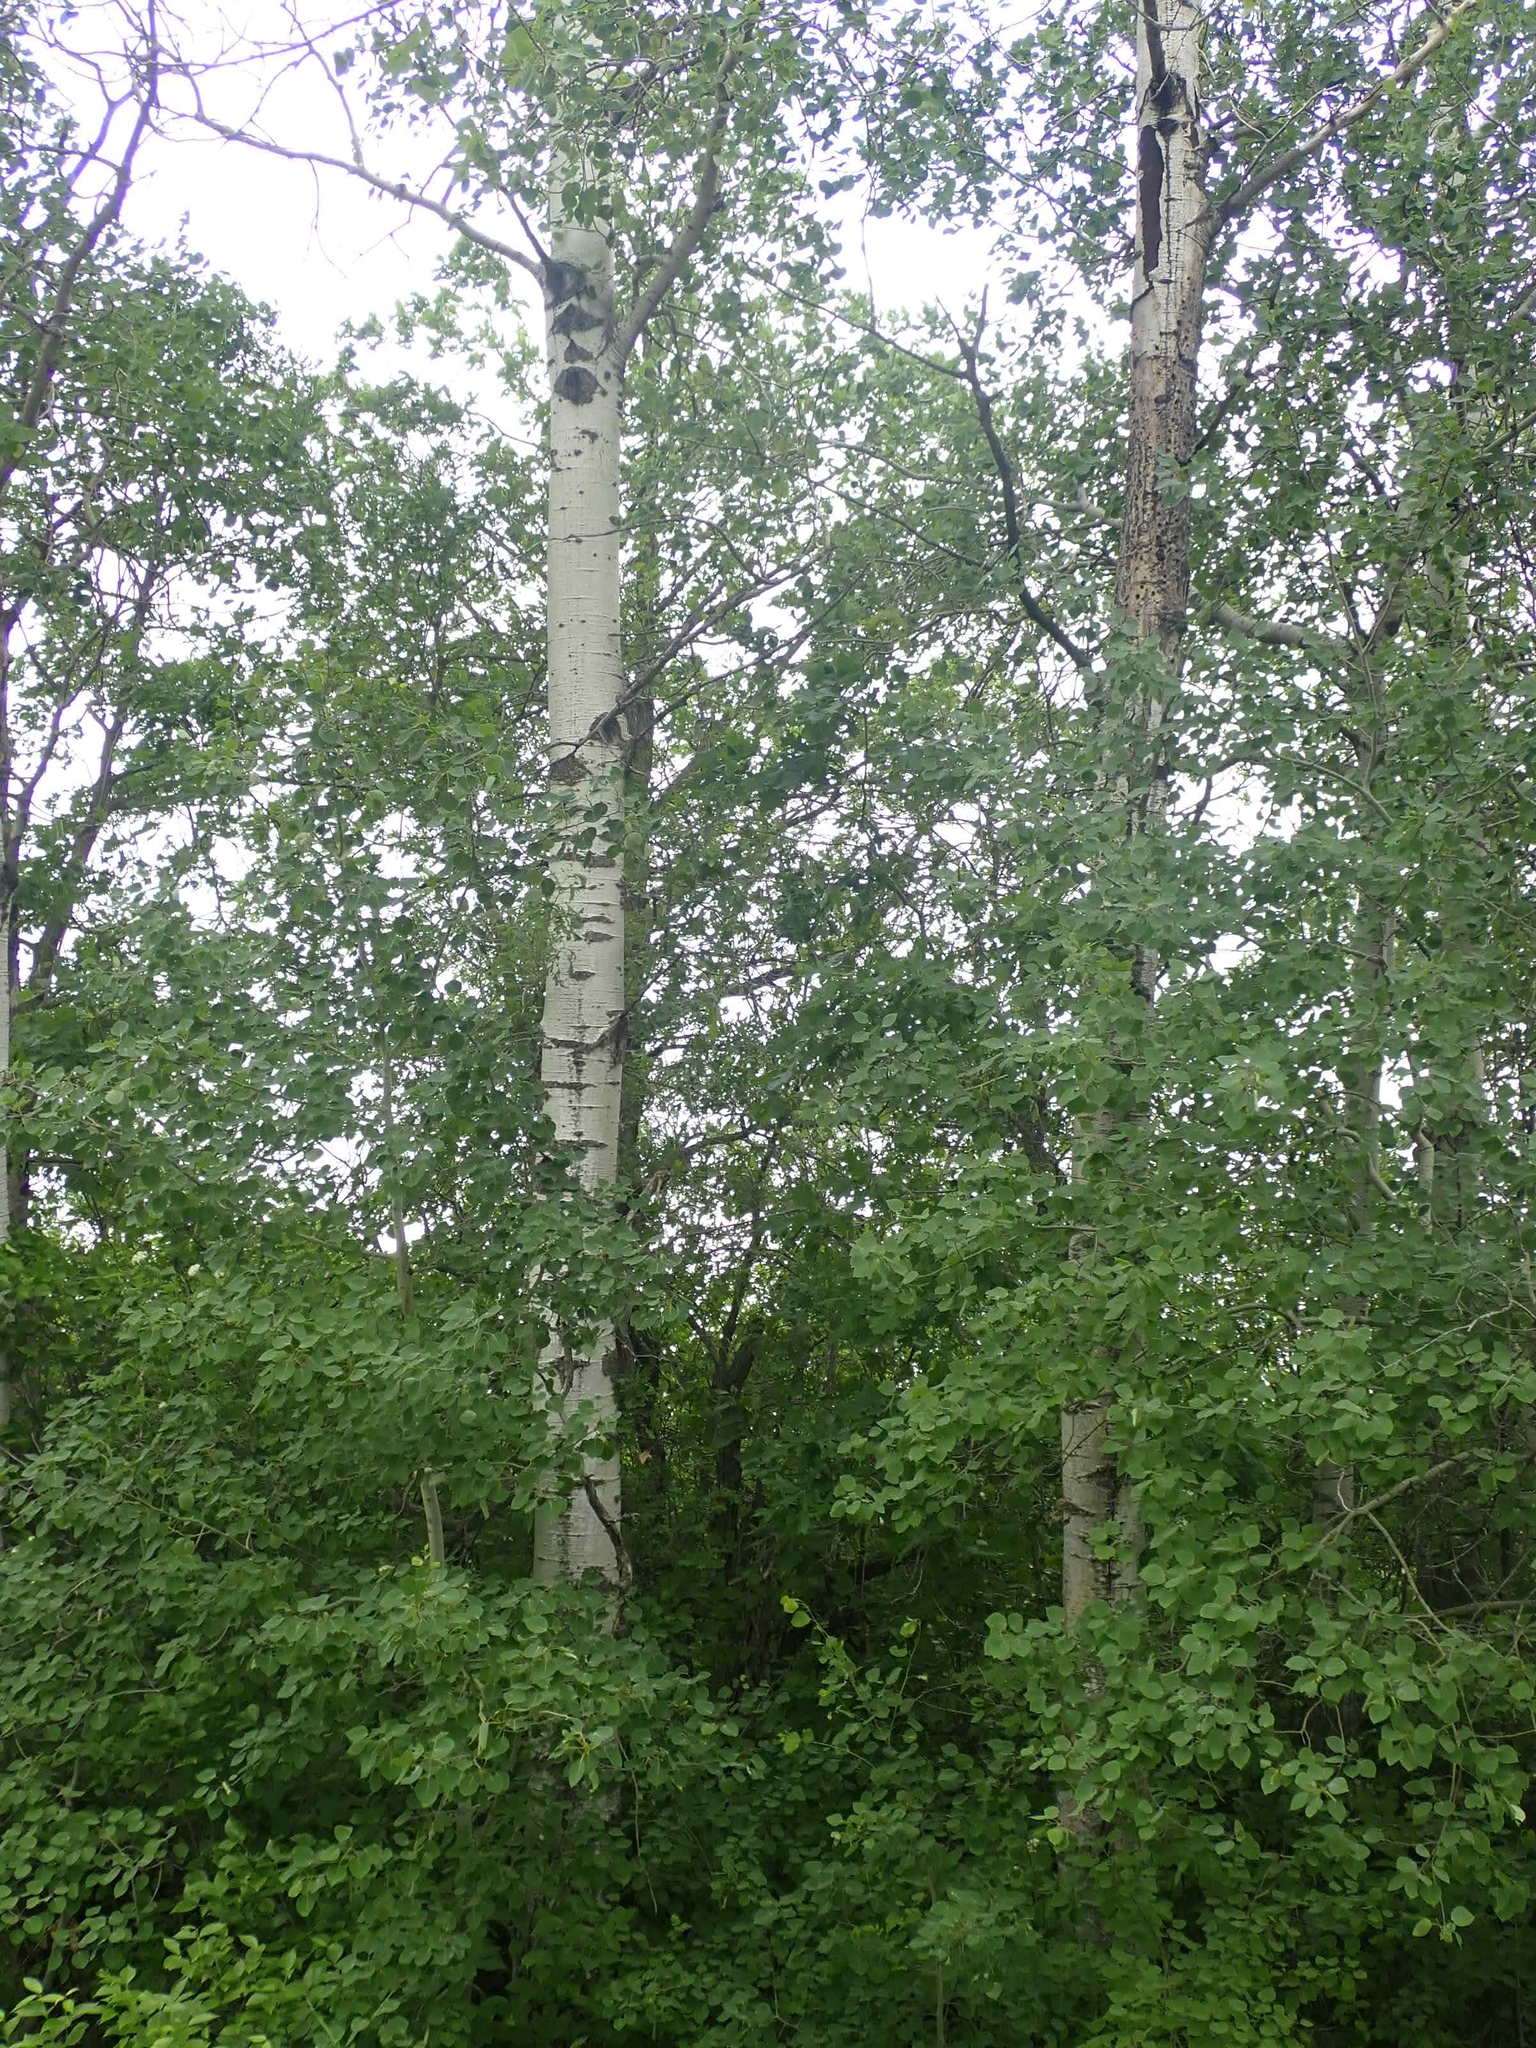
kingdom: Plantae
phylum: Tracheophyta
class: Magnoliopsida
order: Malpighiales
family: Salicaceae
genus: Populus
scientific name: Populus tremuloides
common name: Quaking aspen
